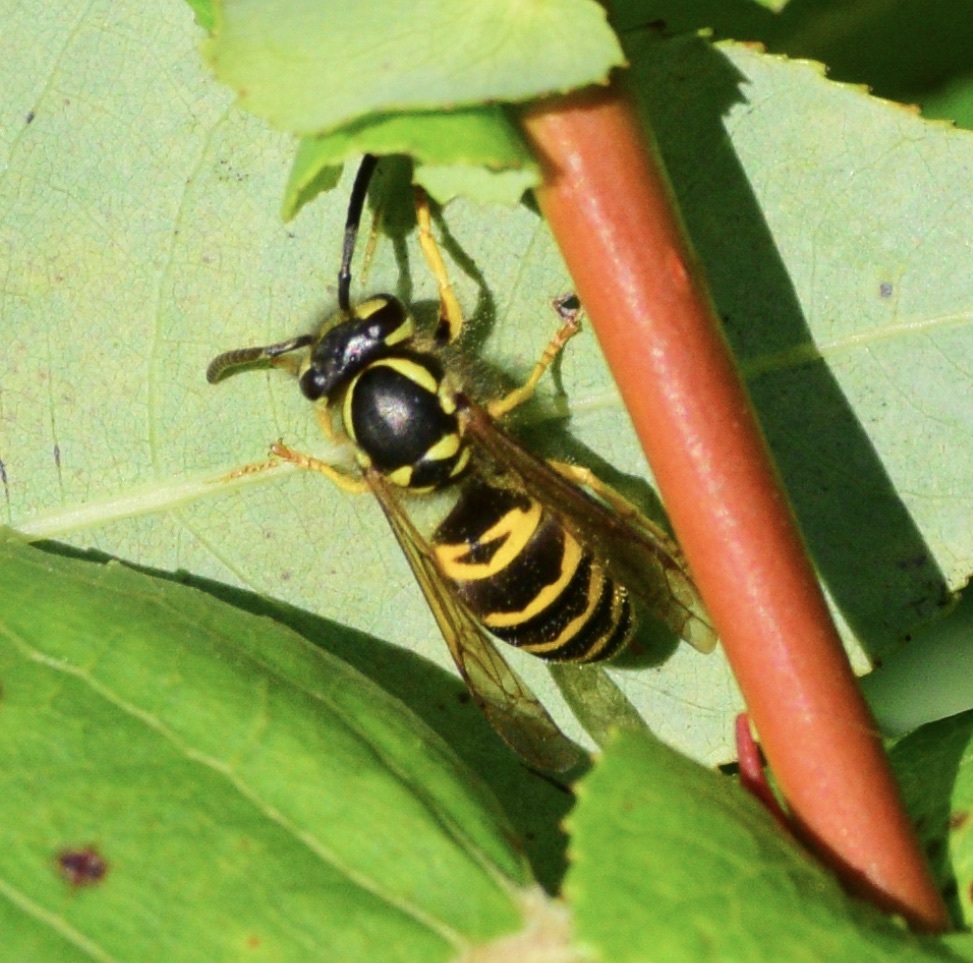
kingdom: Animalia
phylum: Arthropoda
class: Insecta
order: Hymenoptera
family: Vespidae
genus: Vespula
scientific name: Vespula maculifrons
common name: Eastern yellowjacket
